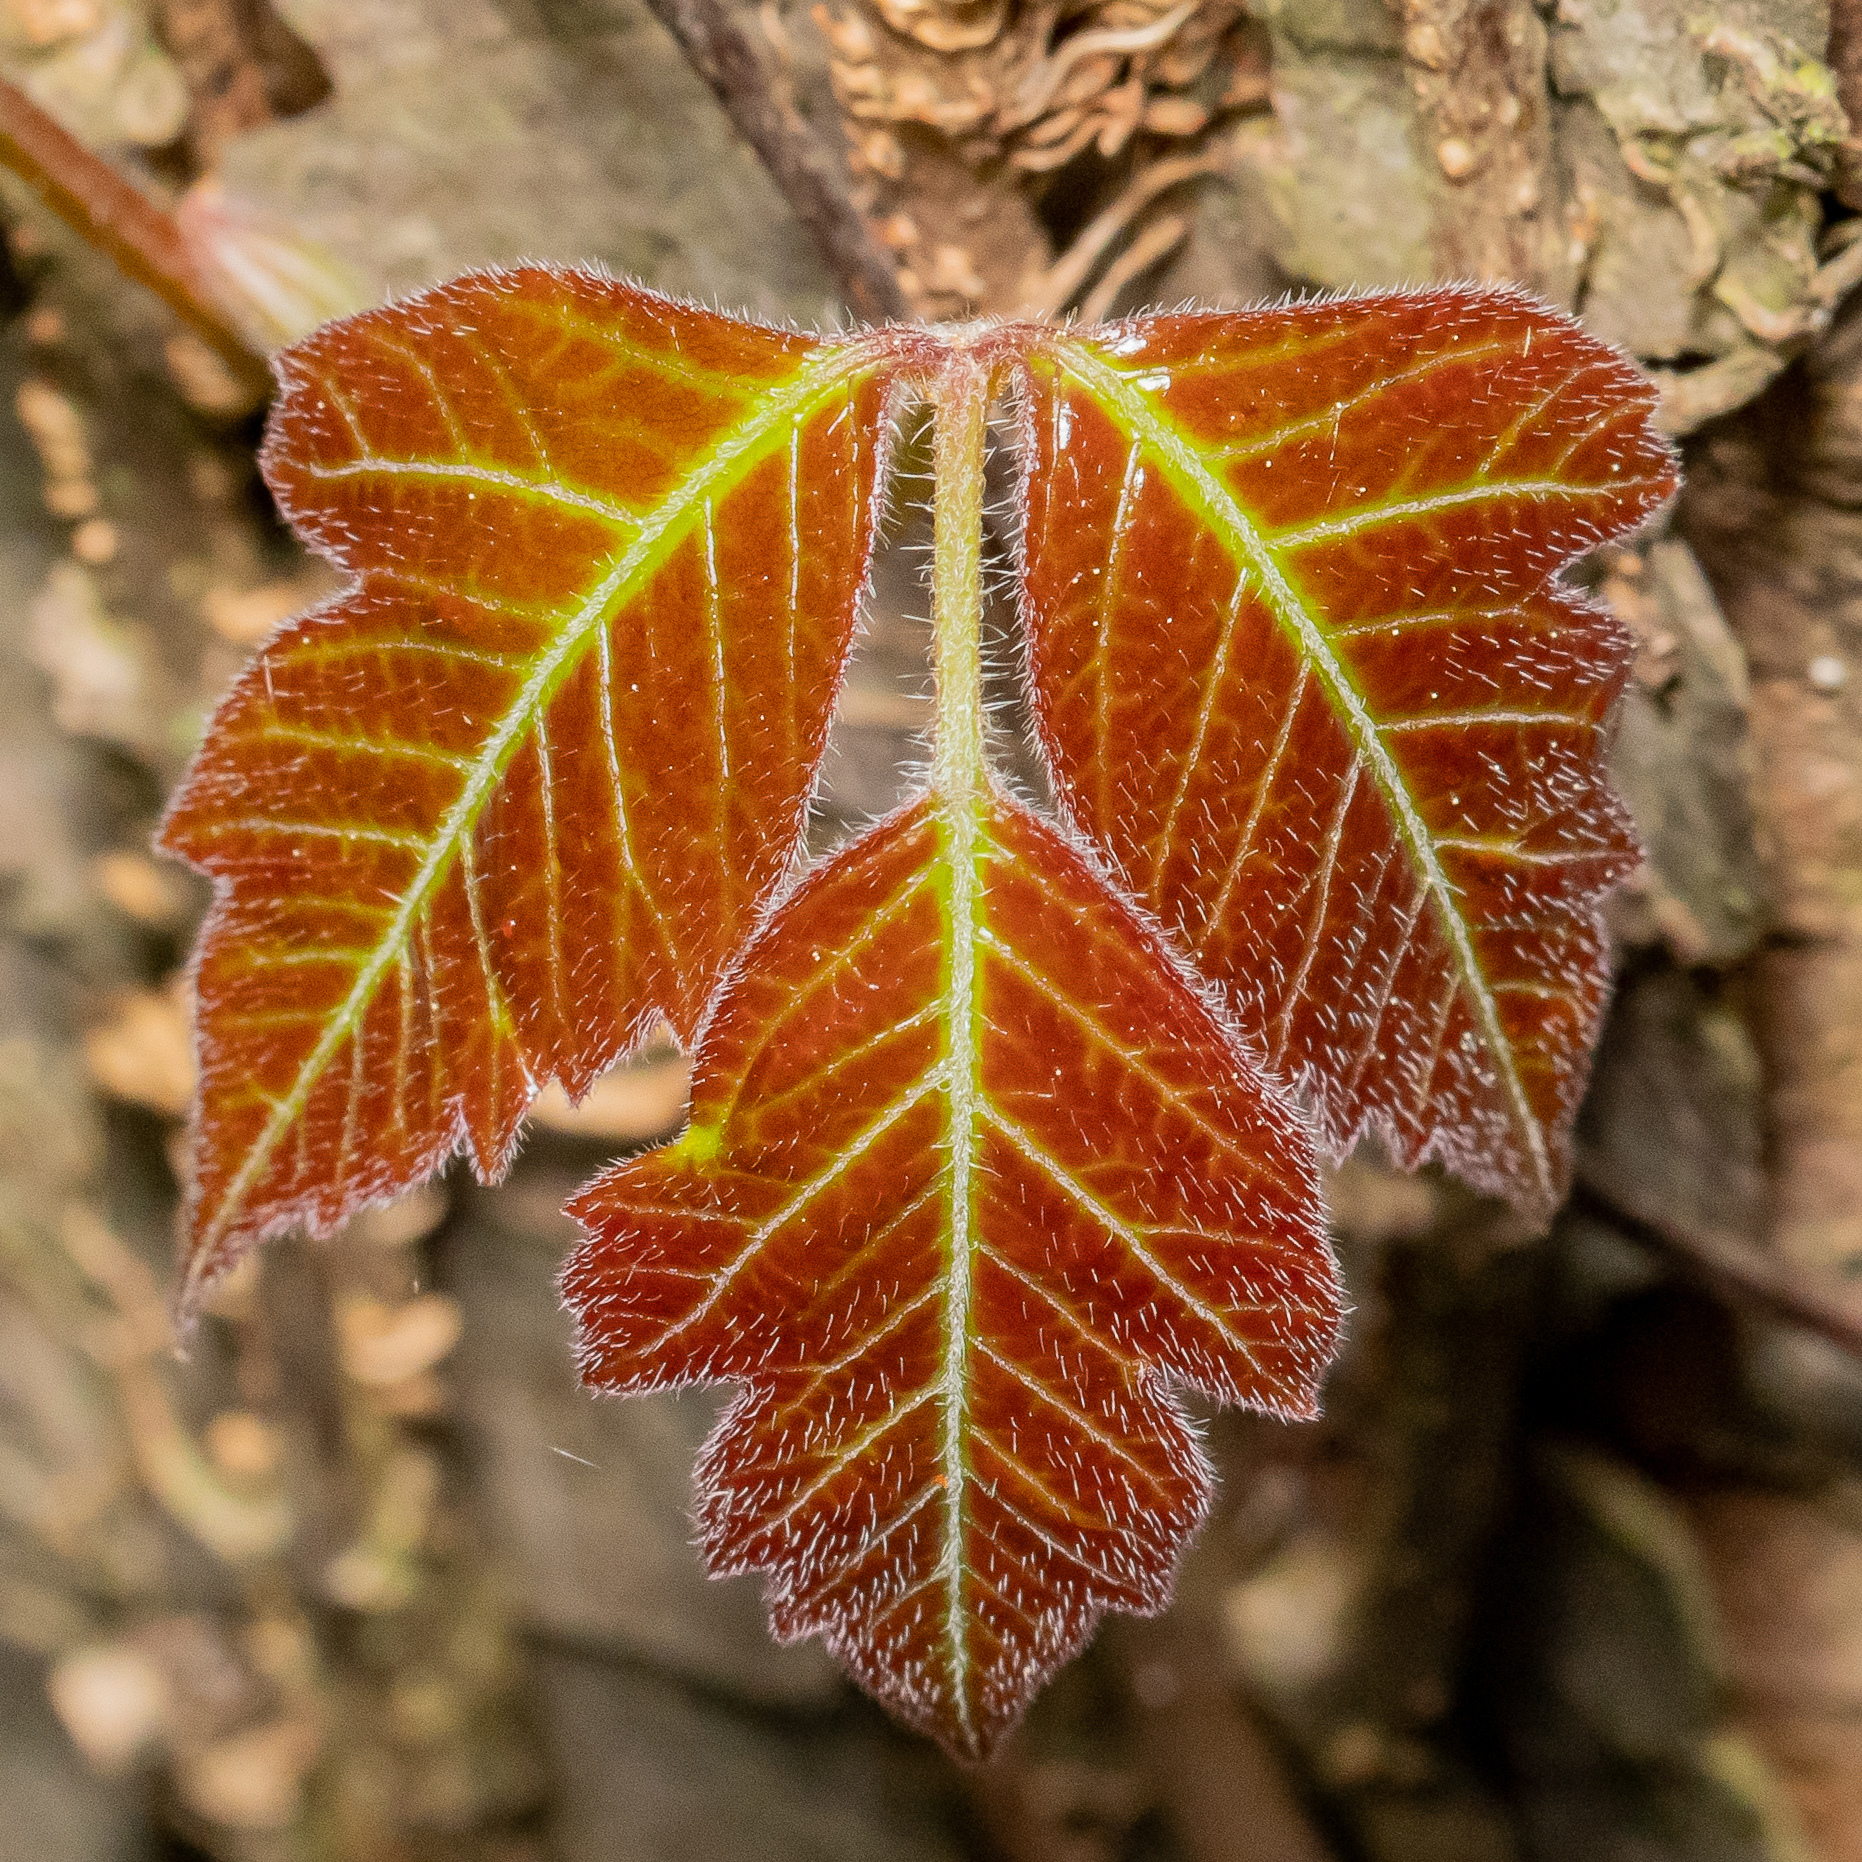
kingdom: Plantae
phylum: Tracheophyta
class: Magnoliopsida
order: Sapindales
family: Anacardiaceae
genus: Toxicodendron
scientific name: Toxicodendron radicans
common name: Poison ivy
